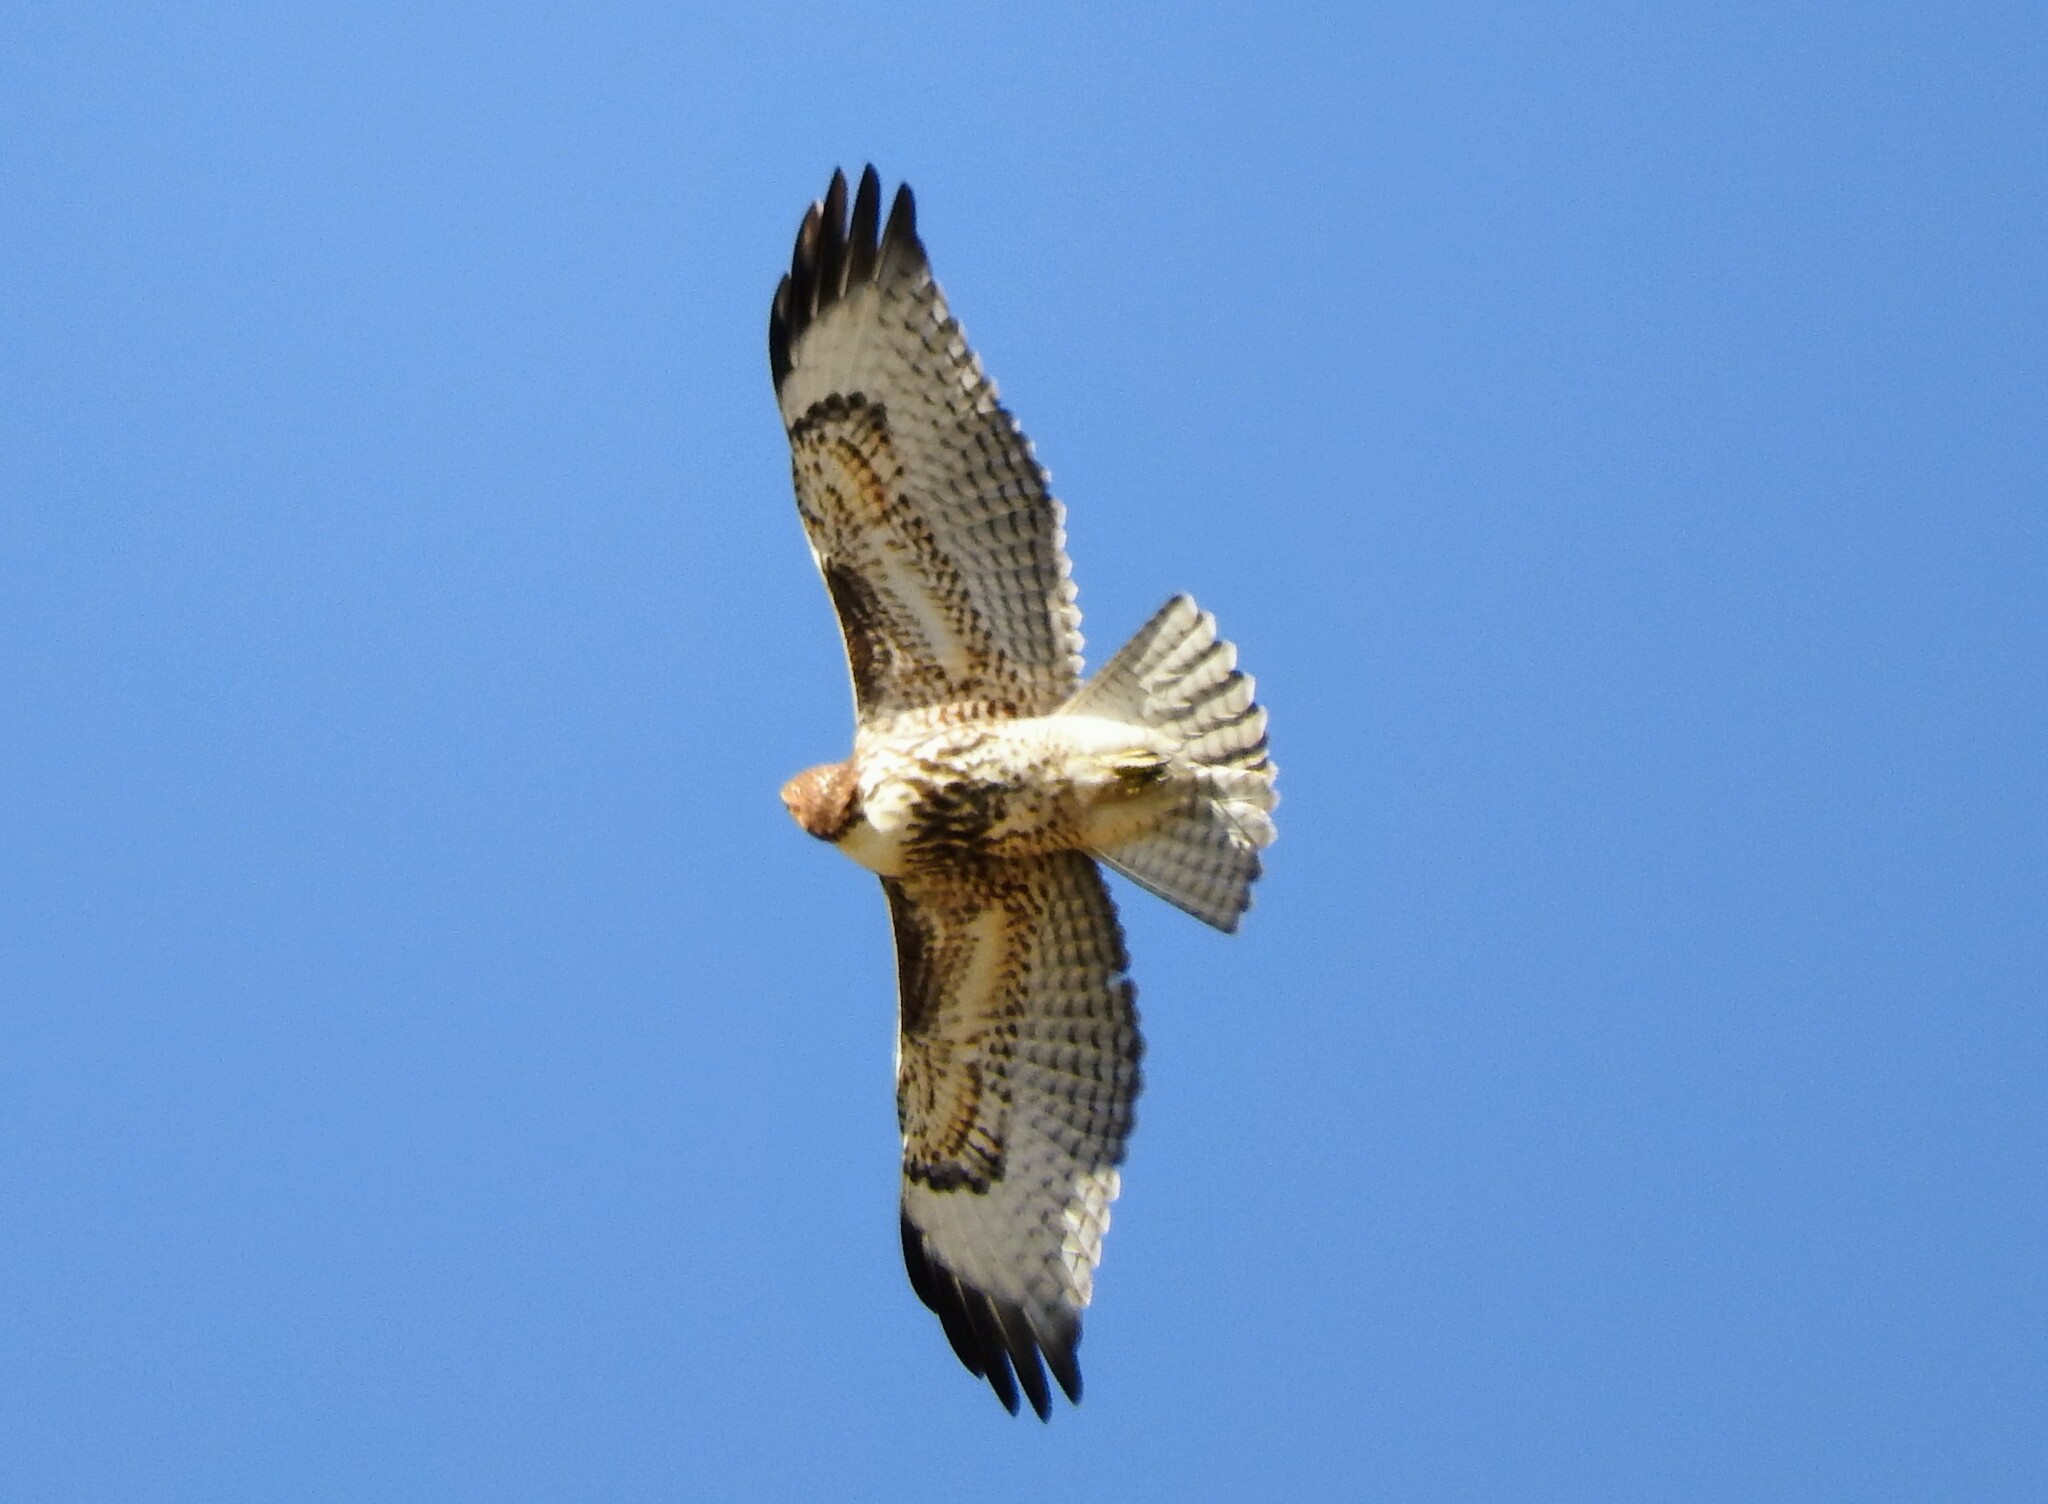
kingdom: Animalia
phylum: Chordata
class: Aves
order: Accipitriformes
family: Accipitridae
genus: Buteo
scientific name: Buteo jamaicensis
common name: Red-tailed hawk
